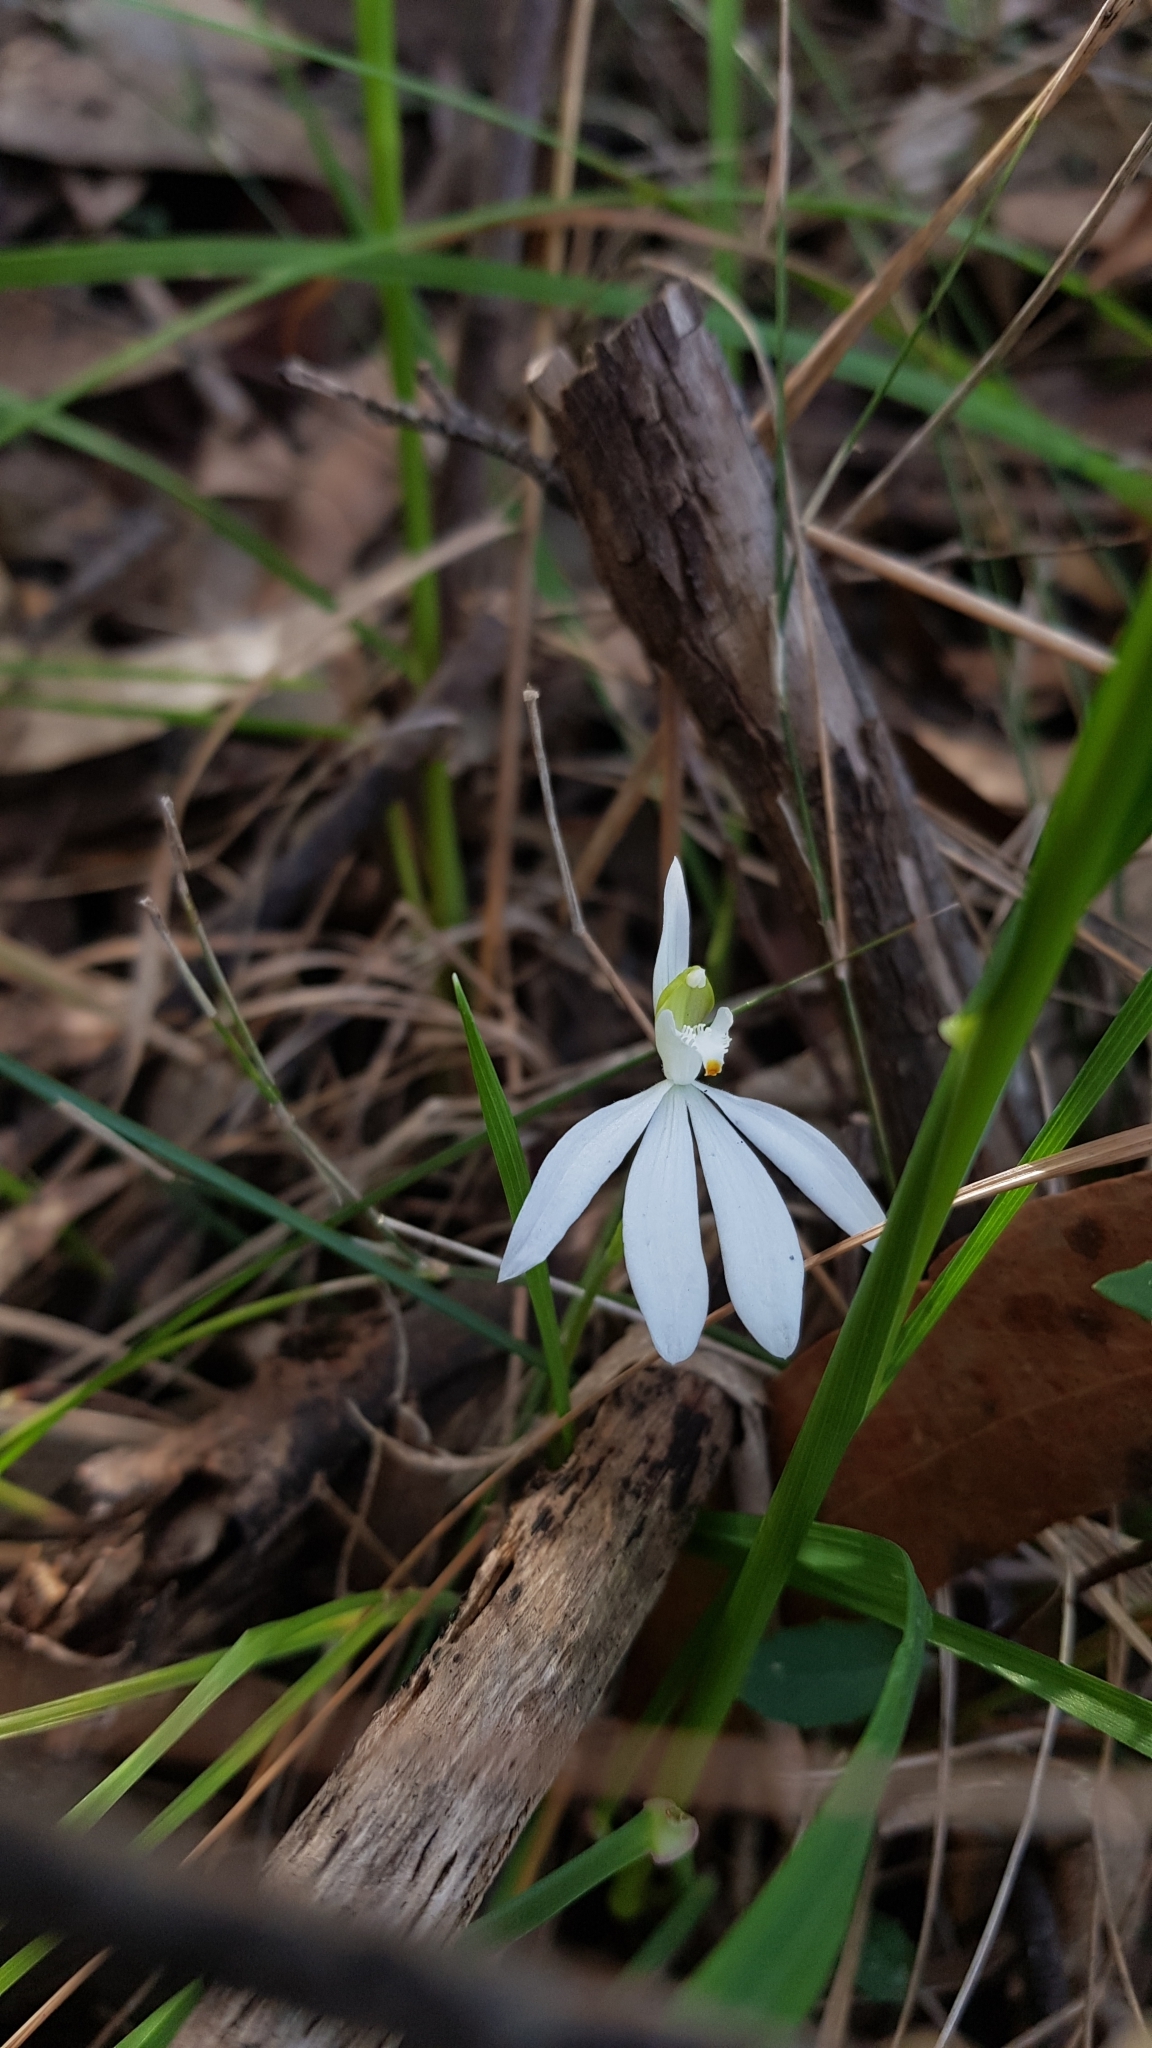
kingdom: Plantae
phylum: Tracheophyta
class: Liliopsida
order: Asparagales
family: Orchidaceae
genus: Caladenia
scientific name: Caladenia catenata
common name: White caladenia
